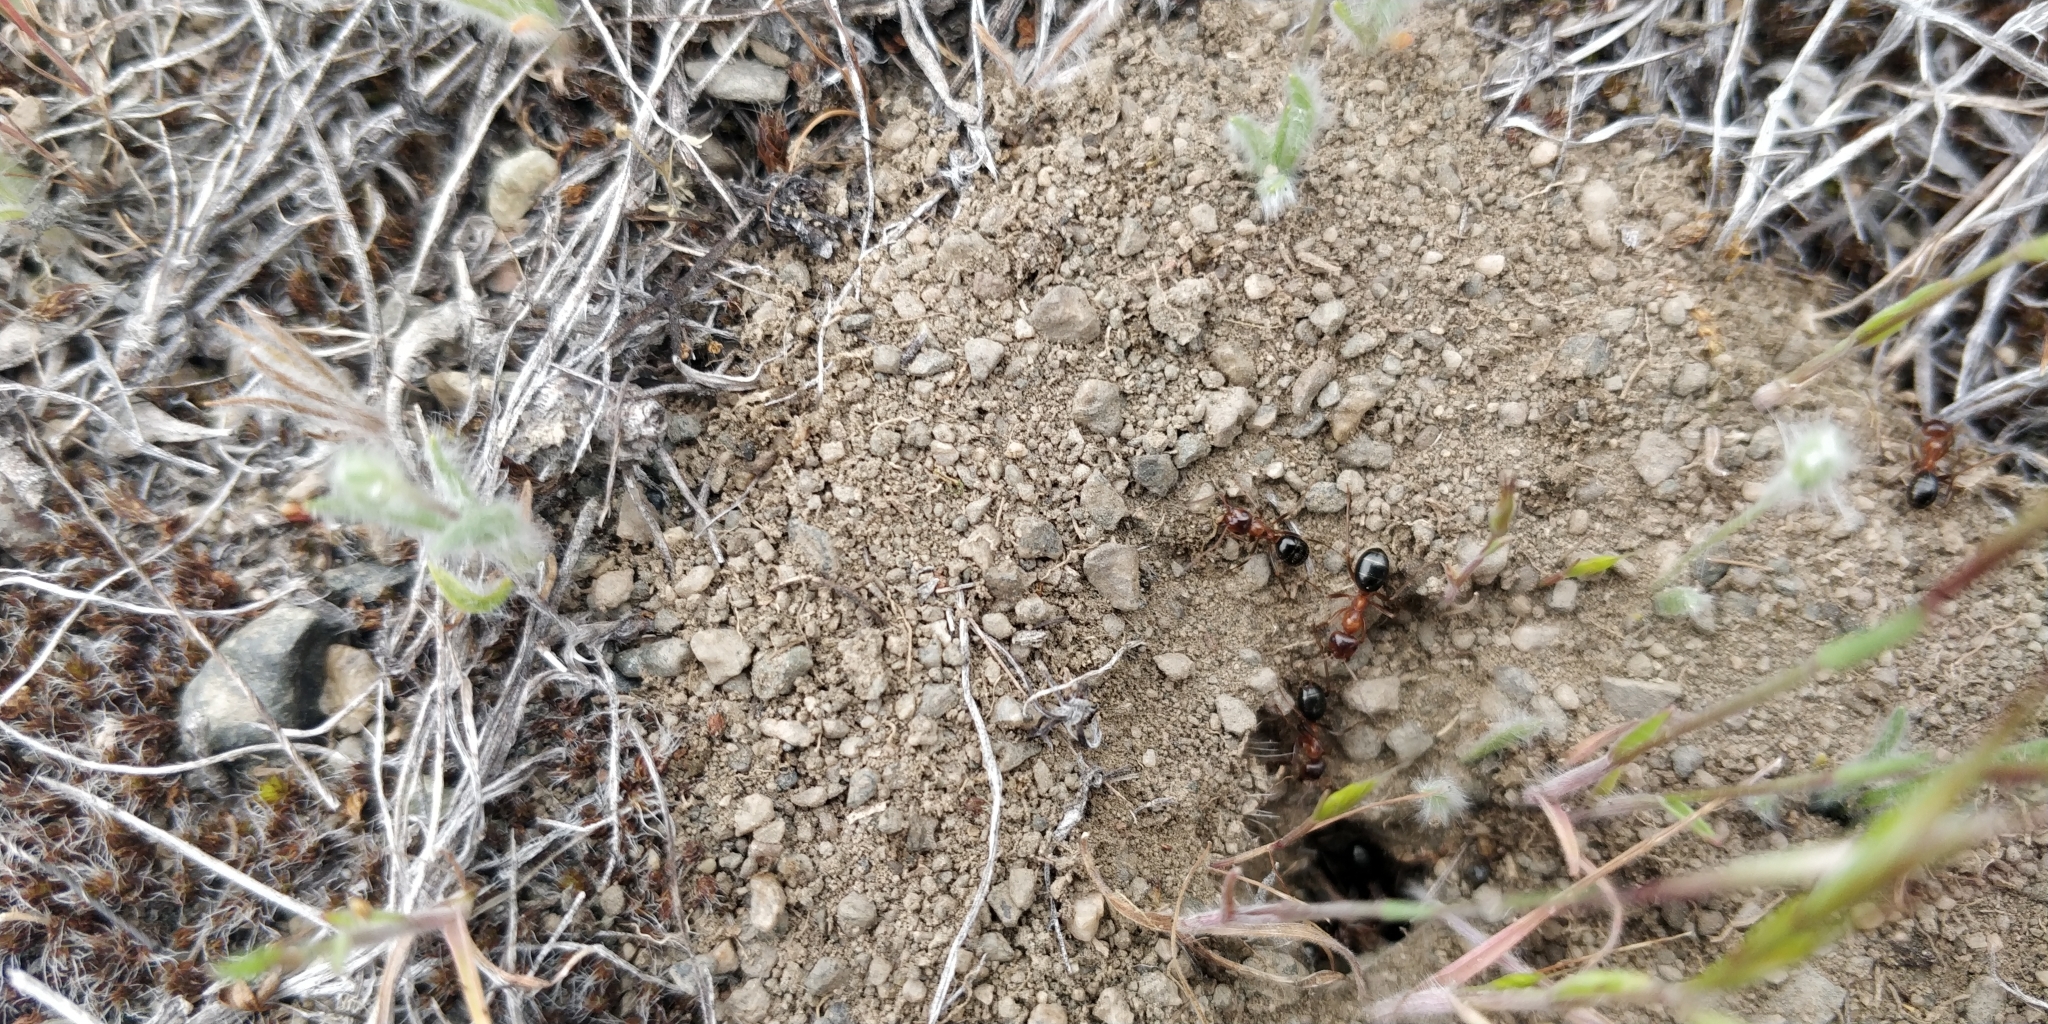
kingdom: Animalia
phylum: Arthropoda
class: Insecta
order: Hymenoptera
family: Formicidae
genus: Formica
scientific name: Formica subpolita
